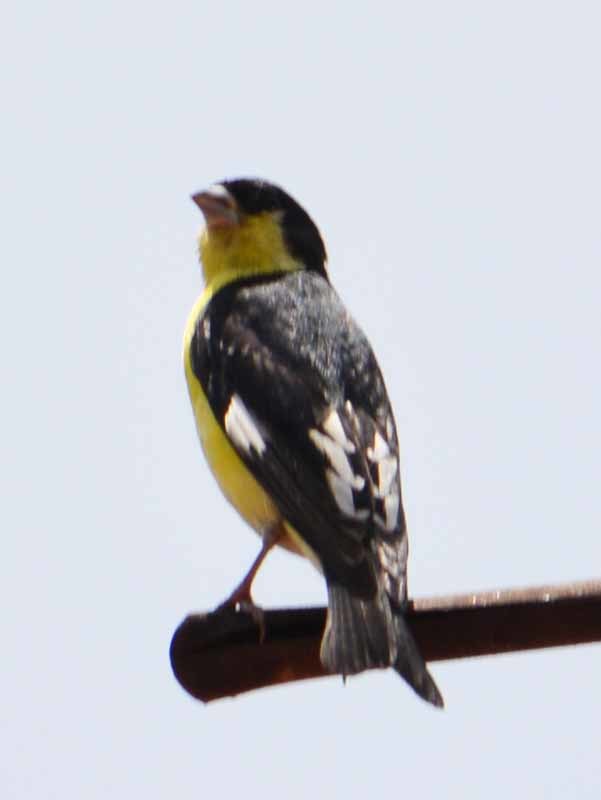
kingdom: Animalia
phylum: Chordata
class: Aves
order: Passeriformes
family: Fringillidae
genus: Spinus
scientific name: Spinus psaltria
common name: Lesser goldfinch
